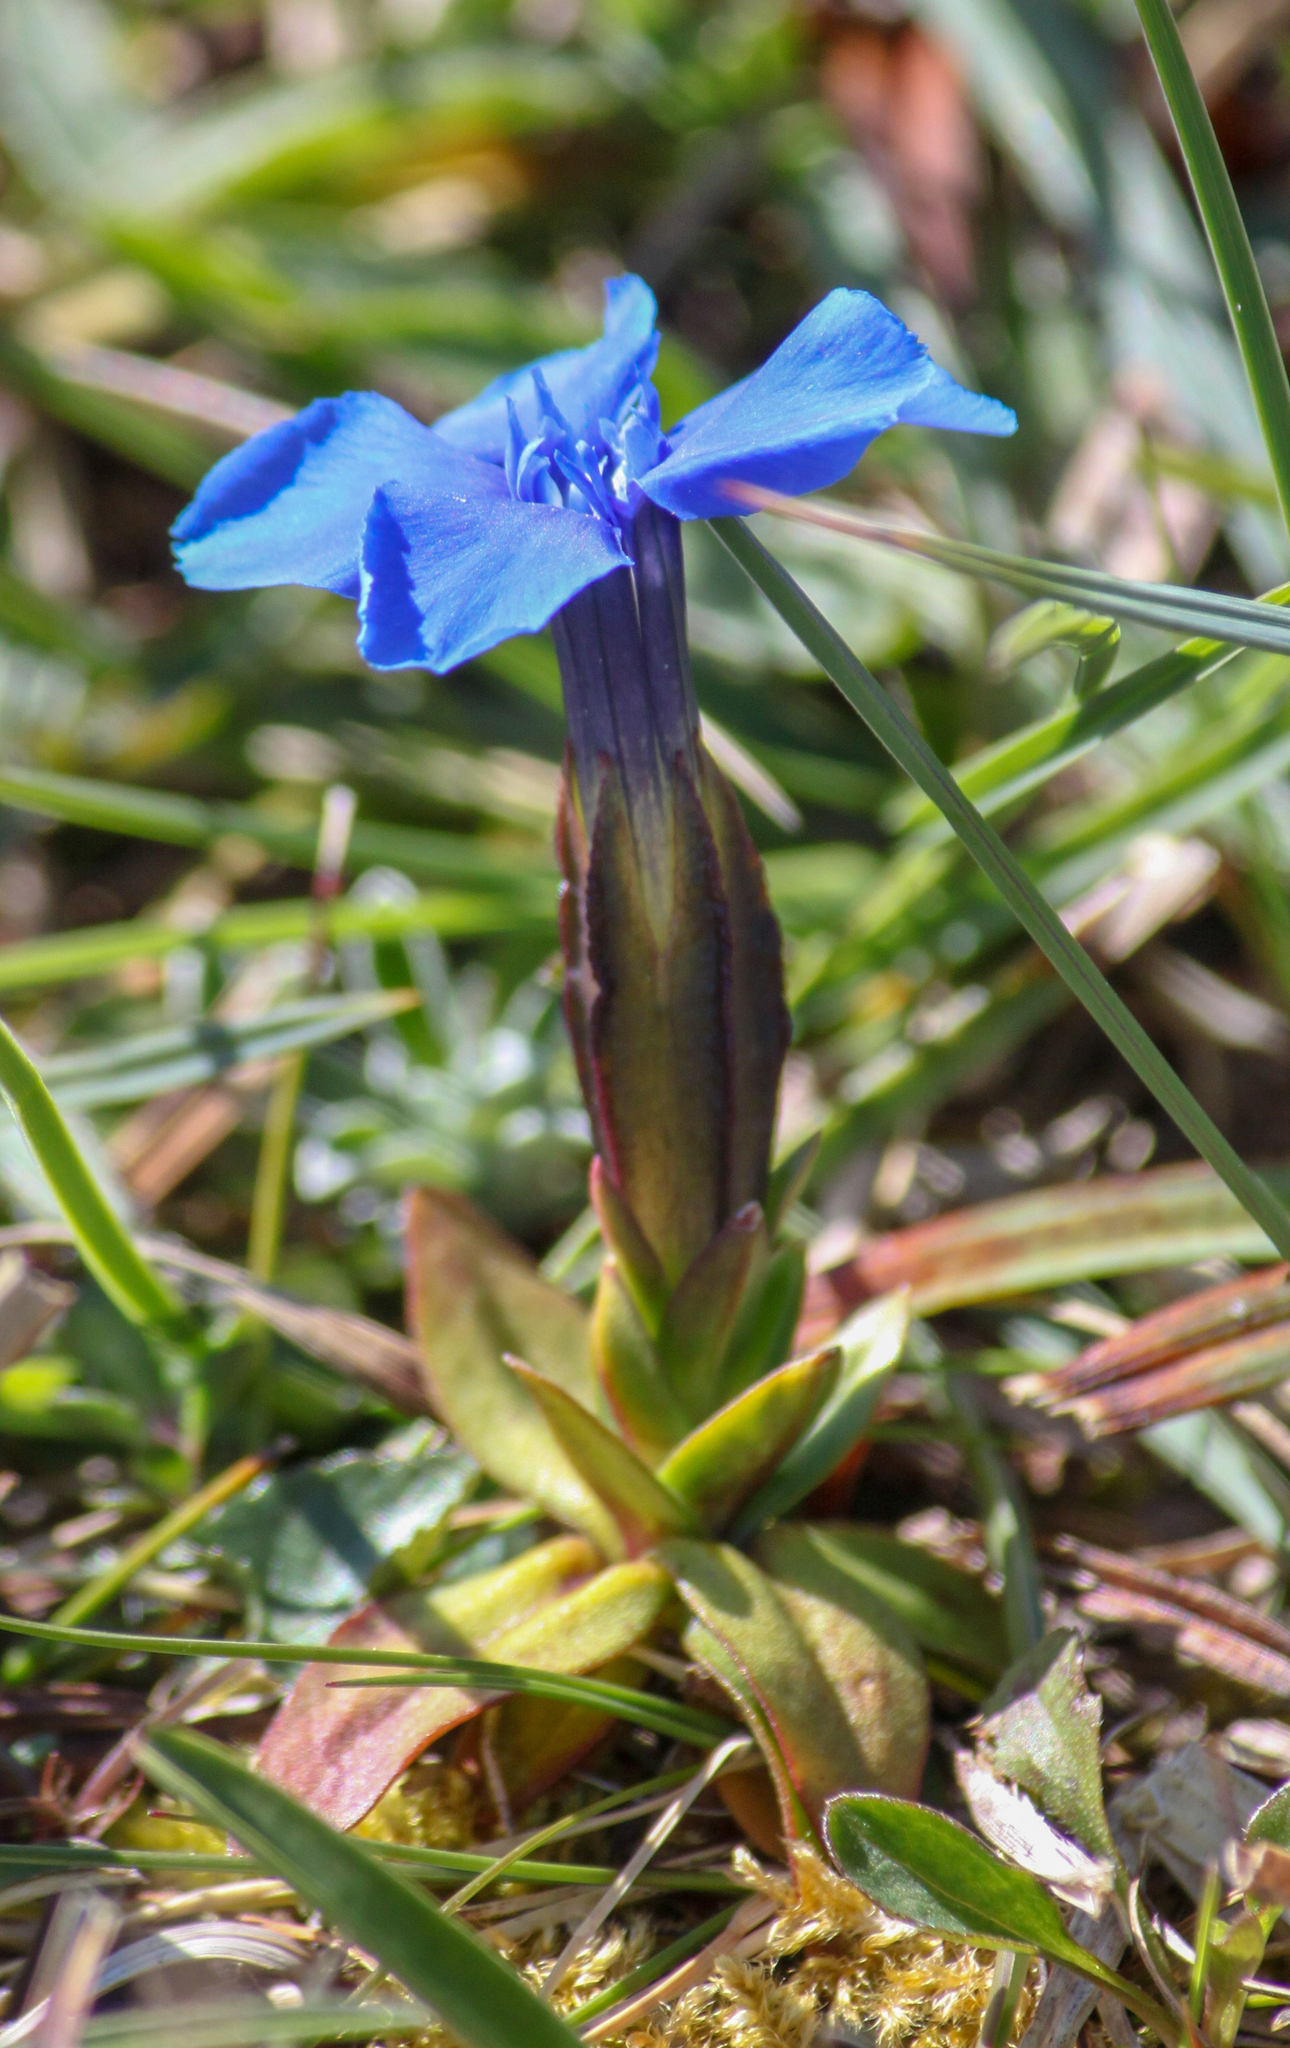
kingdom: Plantae
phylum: Tracheophyta
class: Magnoliopsida
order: Gentianales
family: Gentianaceae
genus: Gentiana
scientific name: Gentiana verna
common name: Spring gentian
